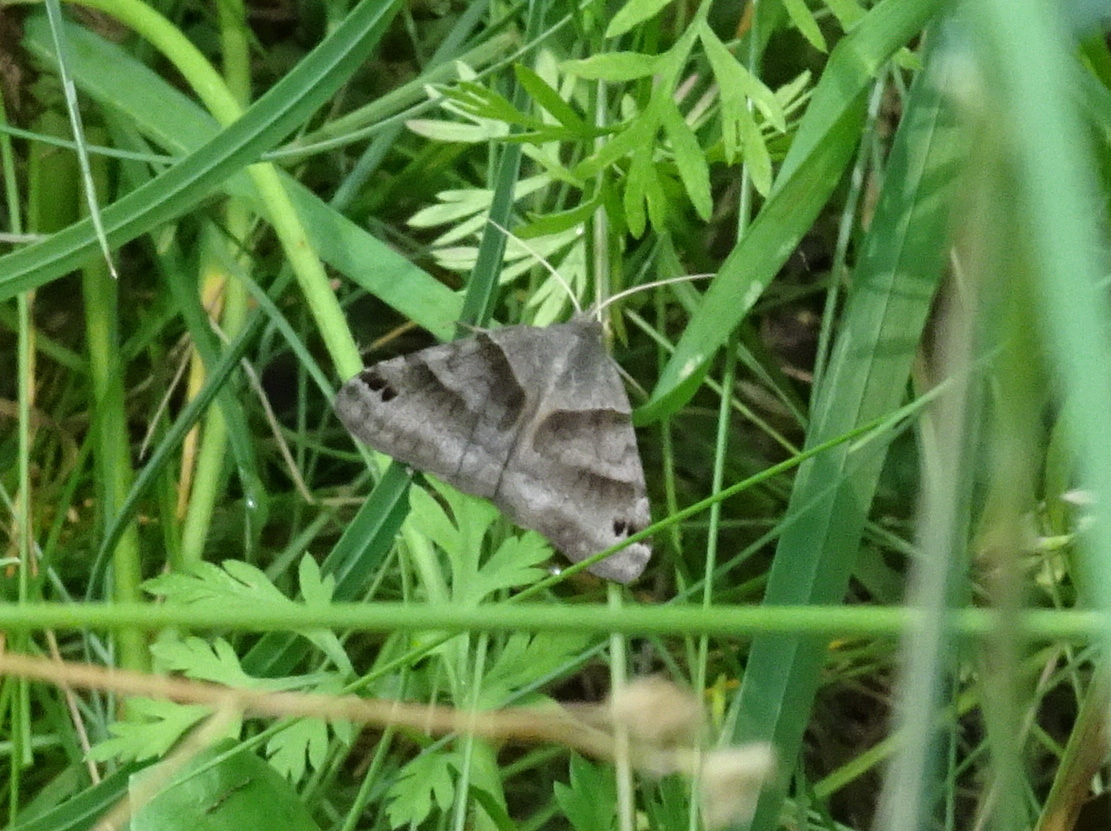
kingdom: Animalia
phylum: Arthropoda
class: Insecta
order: Lepidoptera
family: Erebidae
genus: Caenurgina
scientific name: Caenurgina erechtea
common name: Forage looper moth
